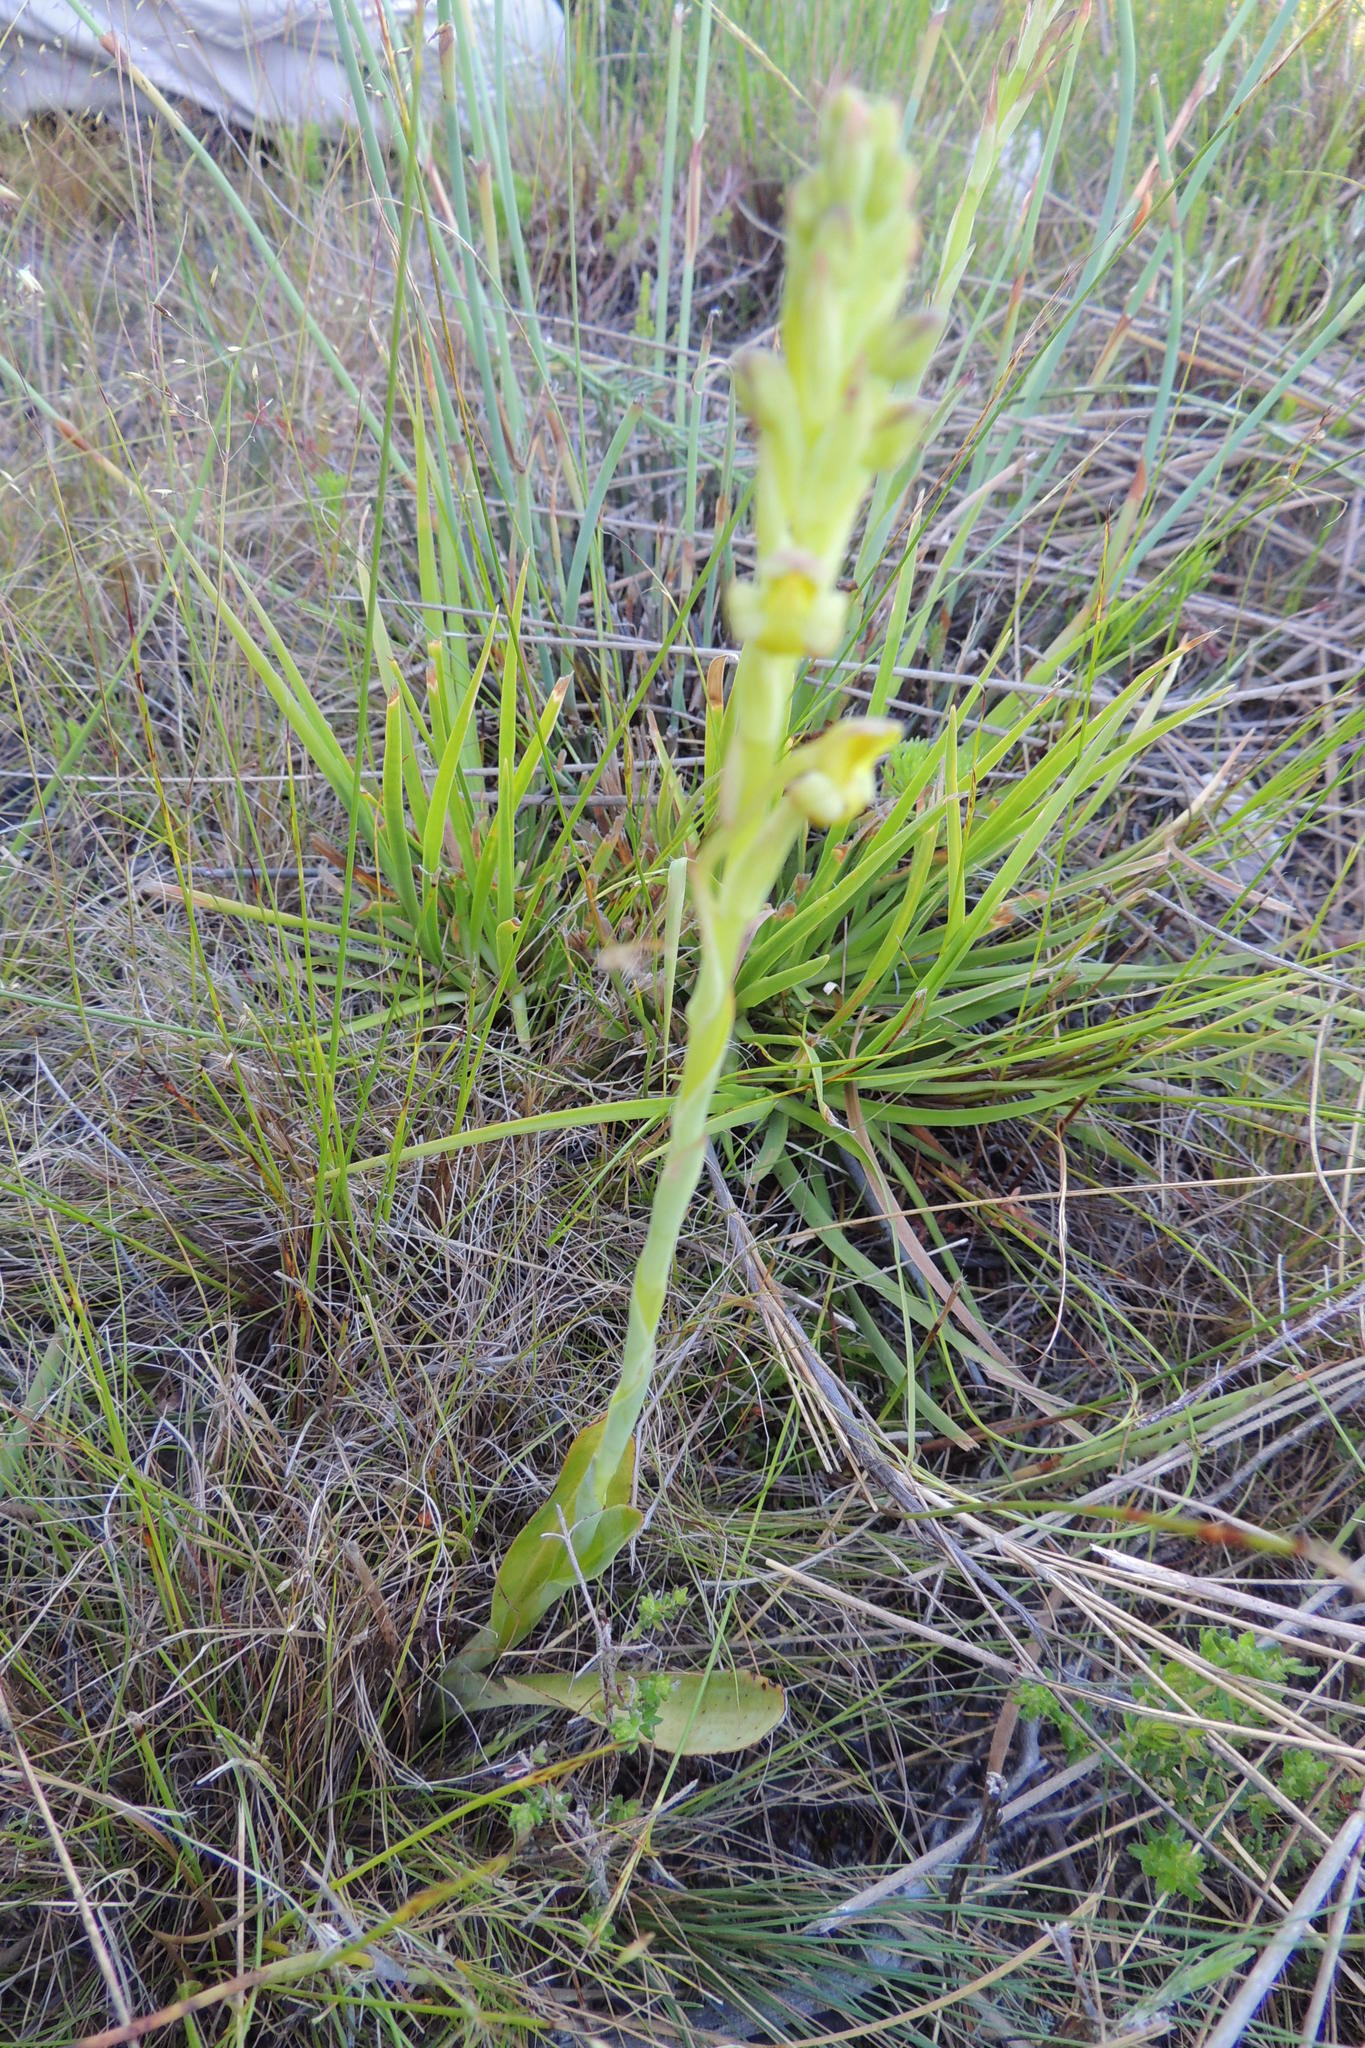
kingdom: Plantae
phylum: Tracheophyta
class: Liliopsida
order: Asparagales
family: Orchidaceae
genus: Disa
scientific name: Disa bolusiana
